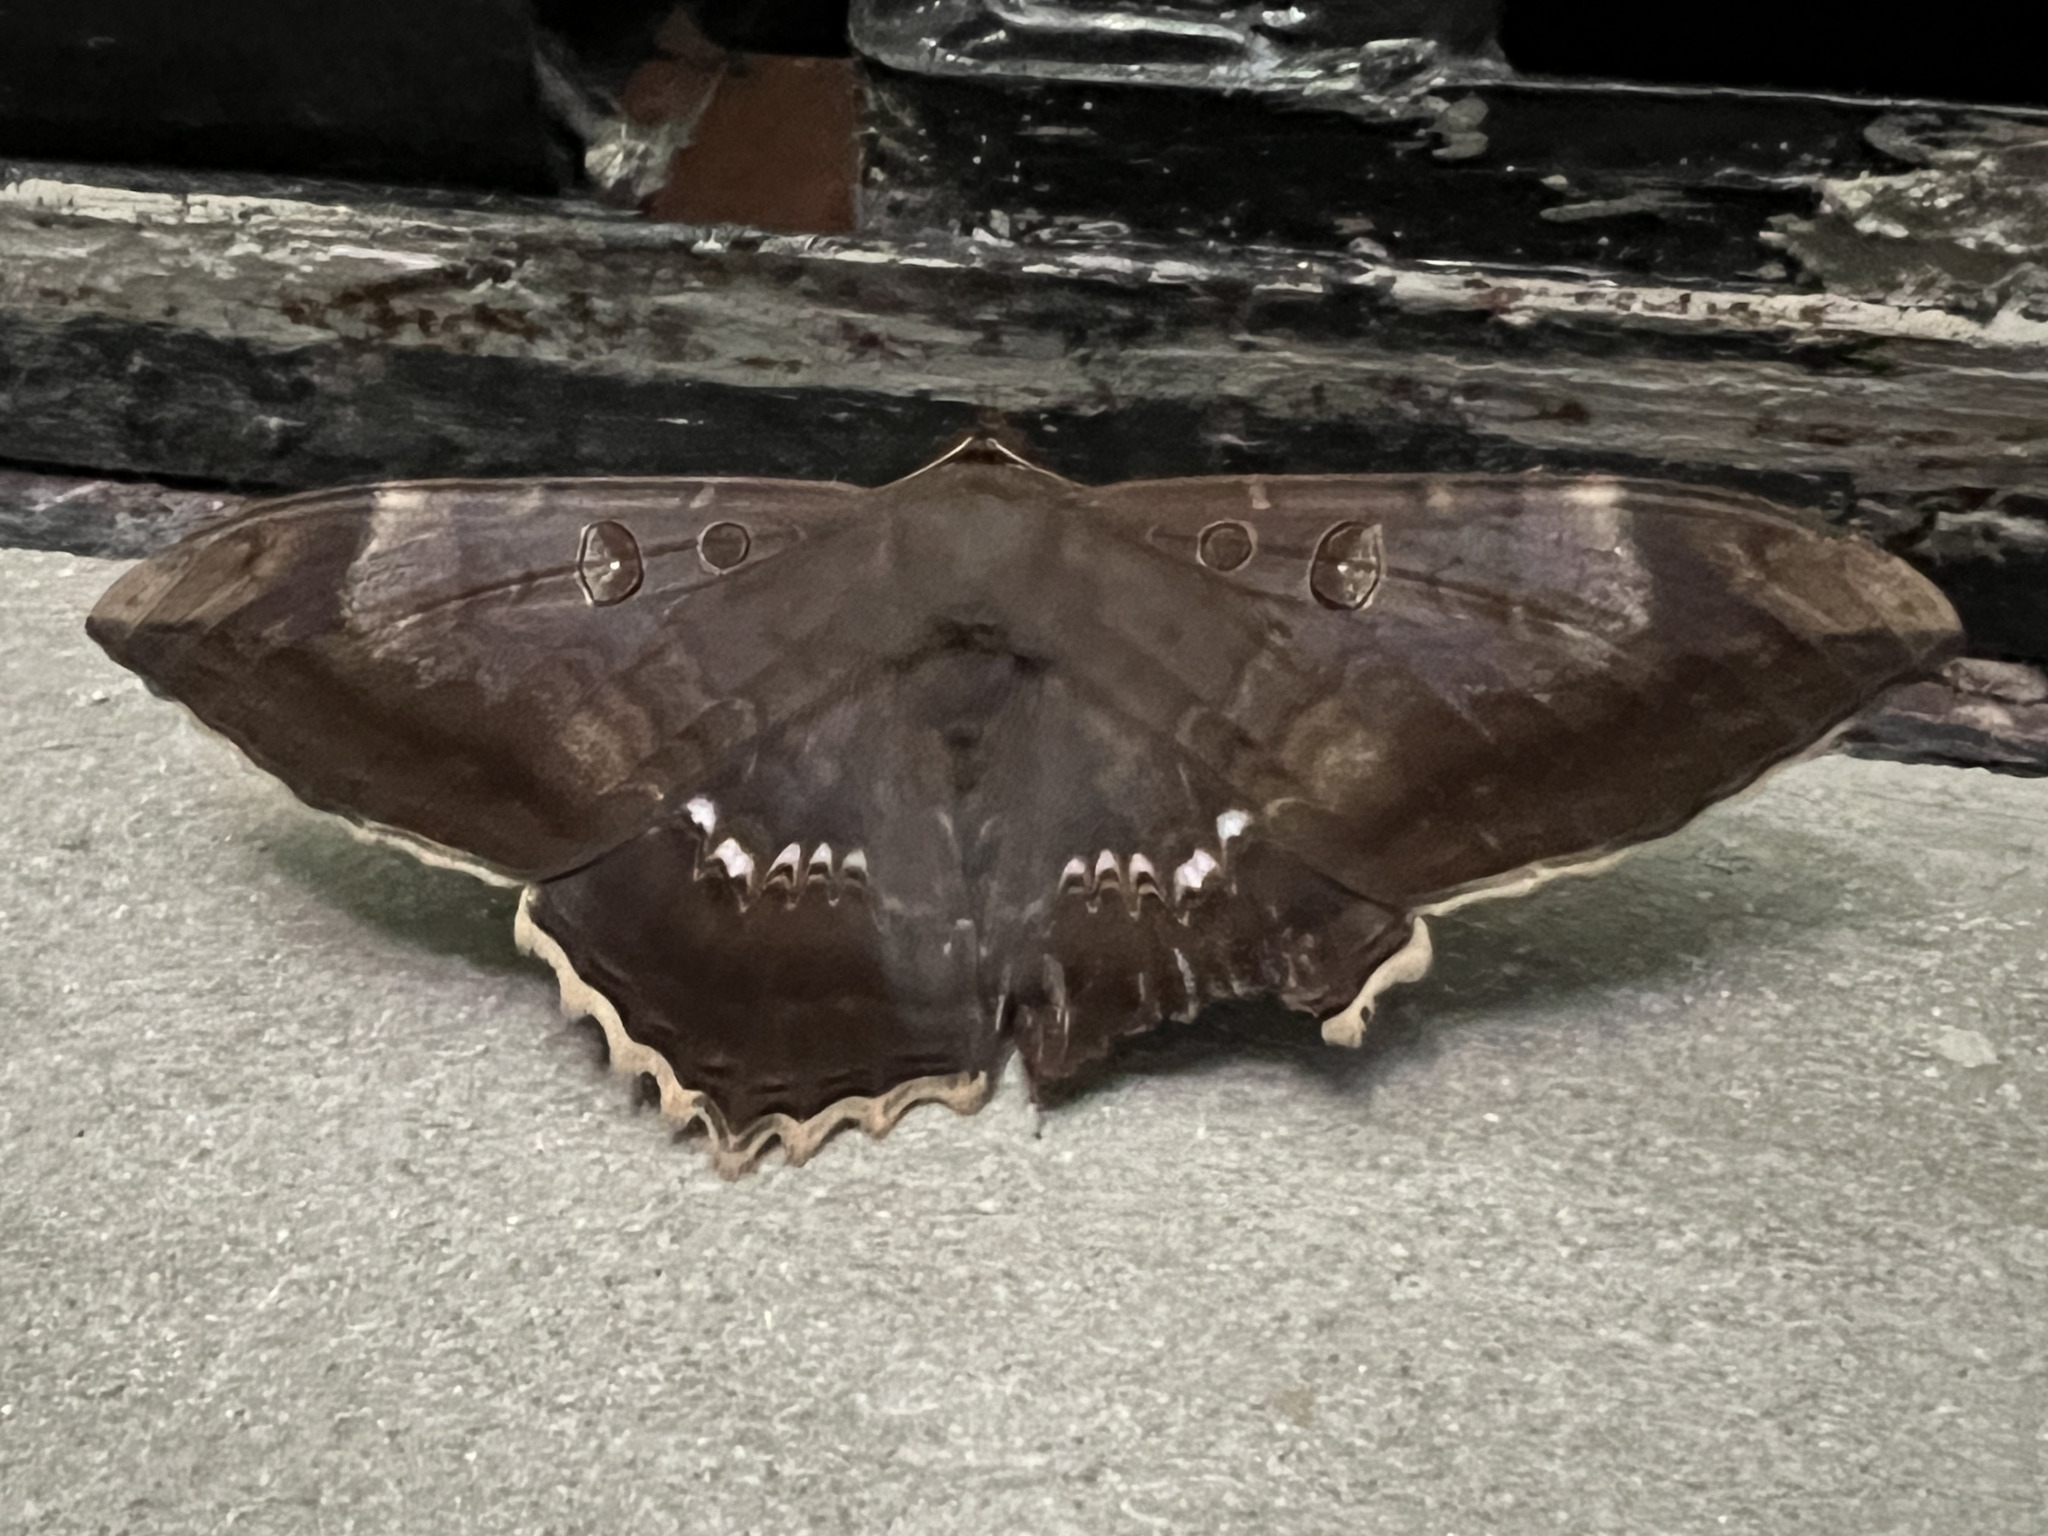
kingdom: Animalia
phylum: Arthropoda
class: Insecta
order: Lepidoptera
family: Erebidae
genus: Cyclopis
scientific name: Cyclopis caecutiens
